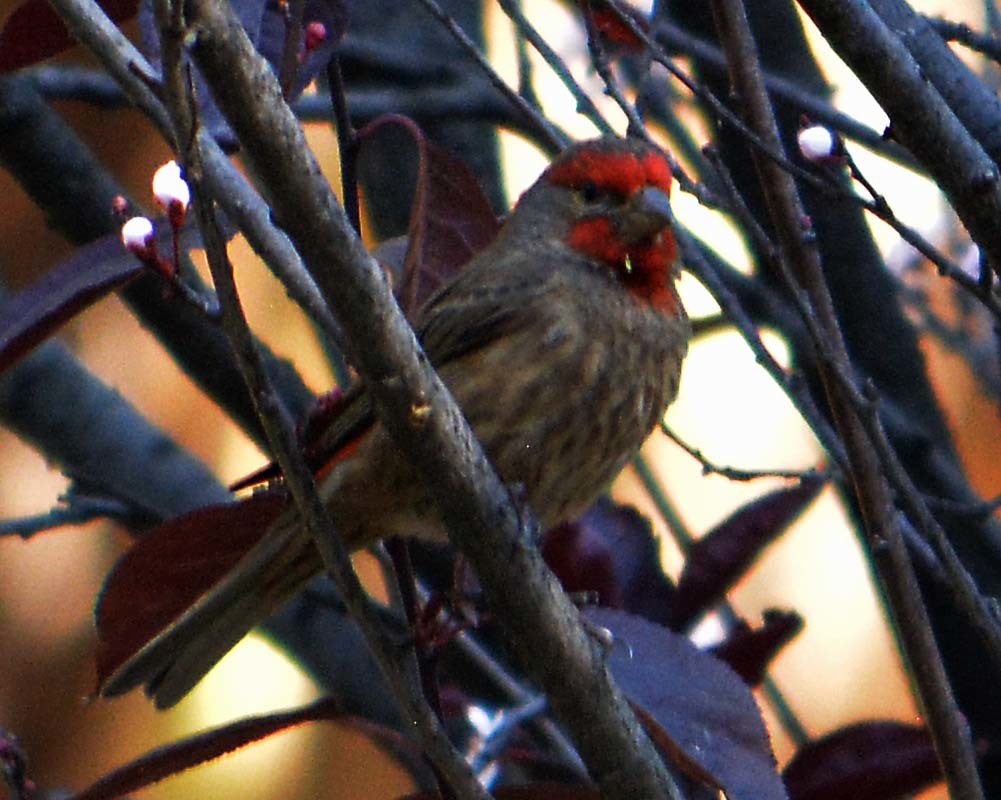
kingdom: Animalia
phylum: Chordata
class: Aves
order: Passeriformes
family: Fringillidae
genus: Haemorhous
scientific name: Haemorhous mexicanus
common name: House finch
